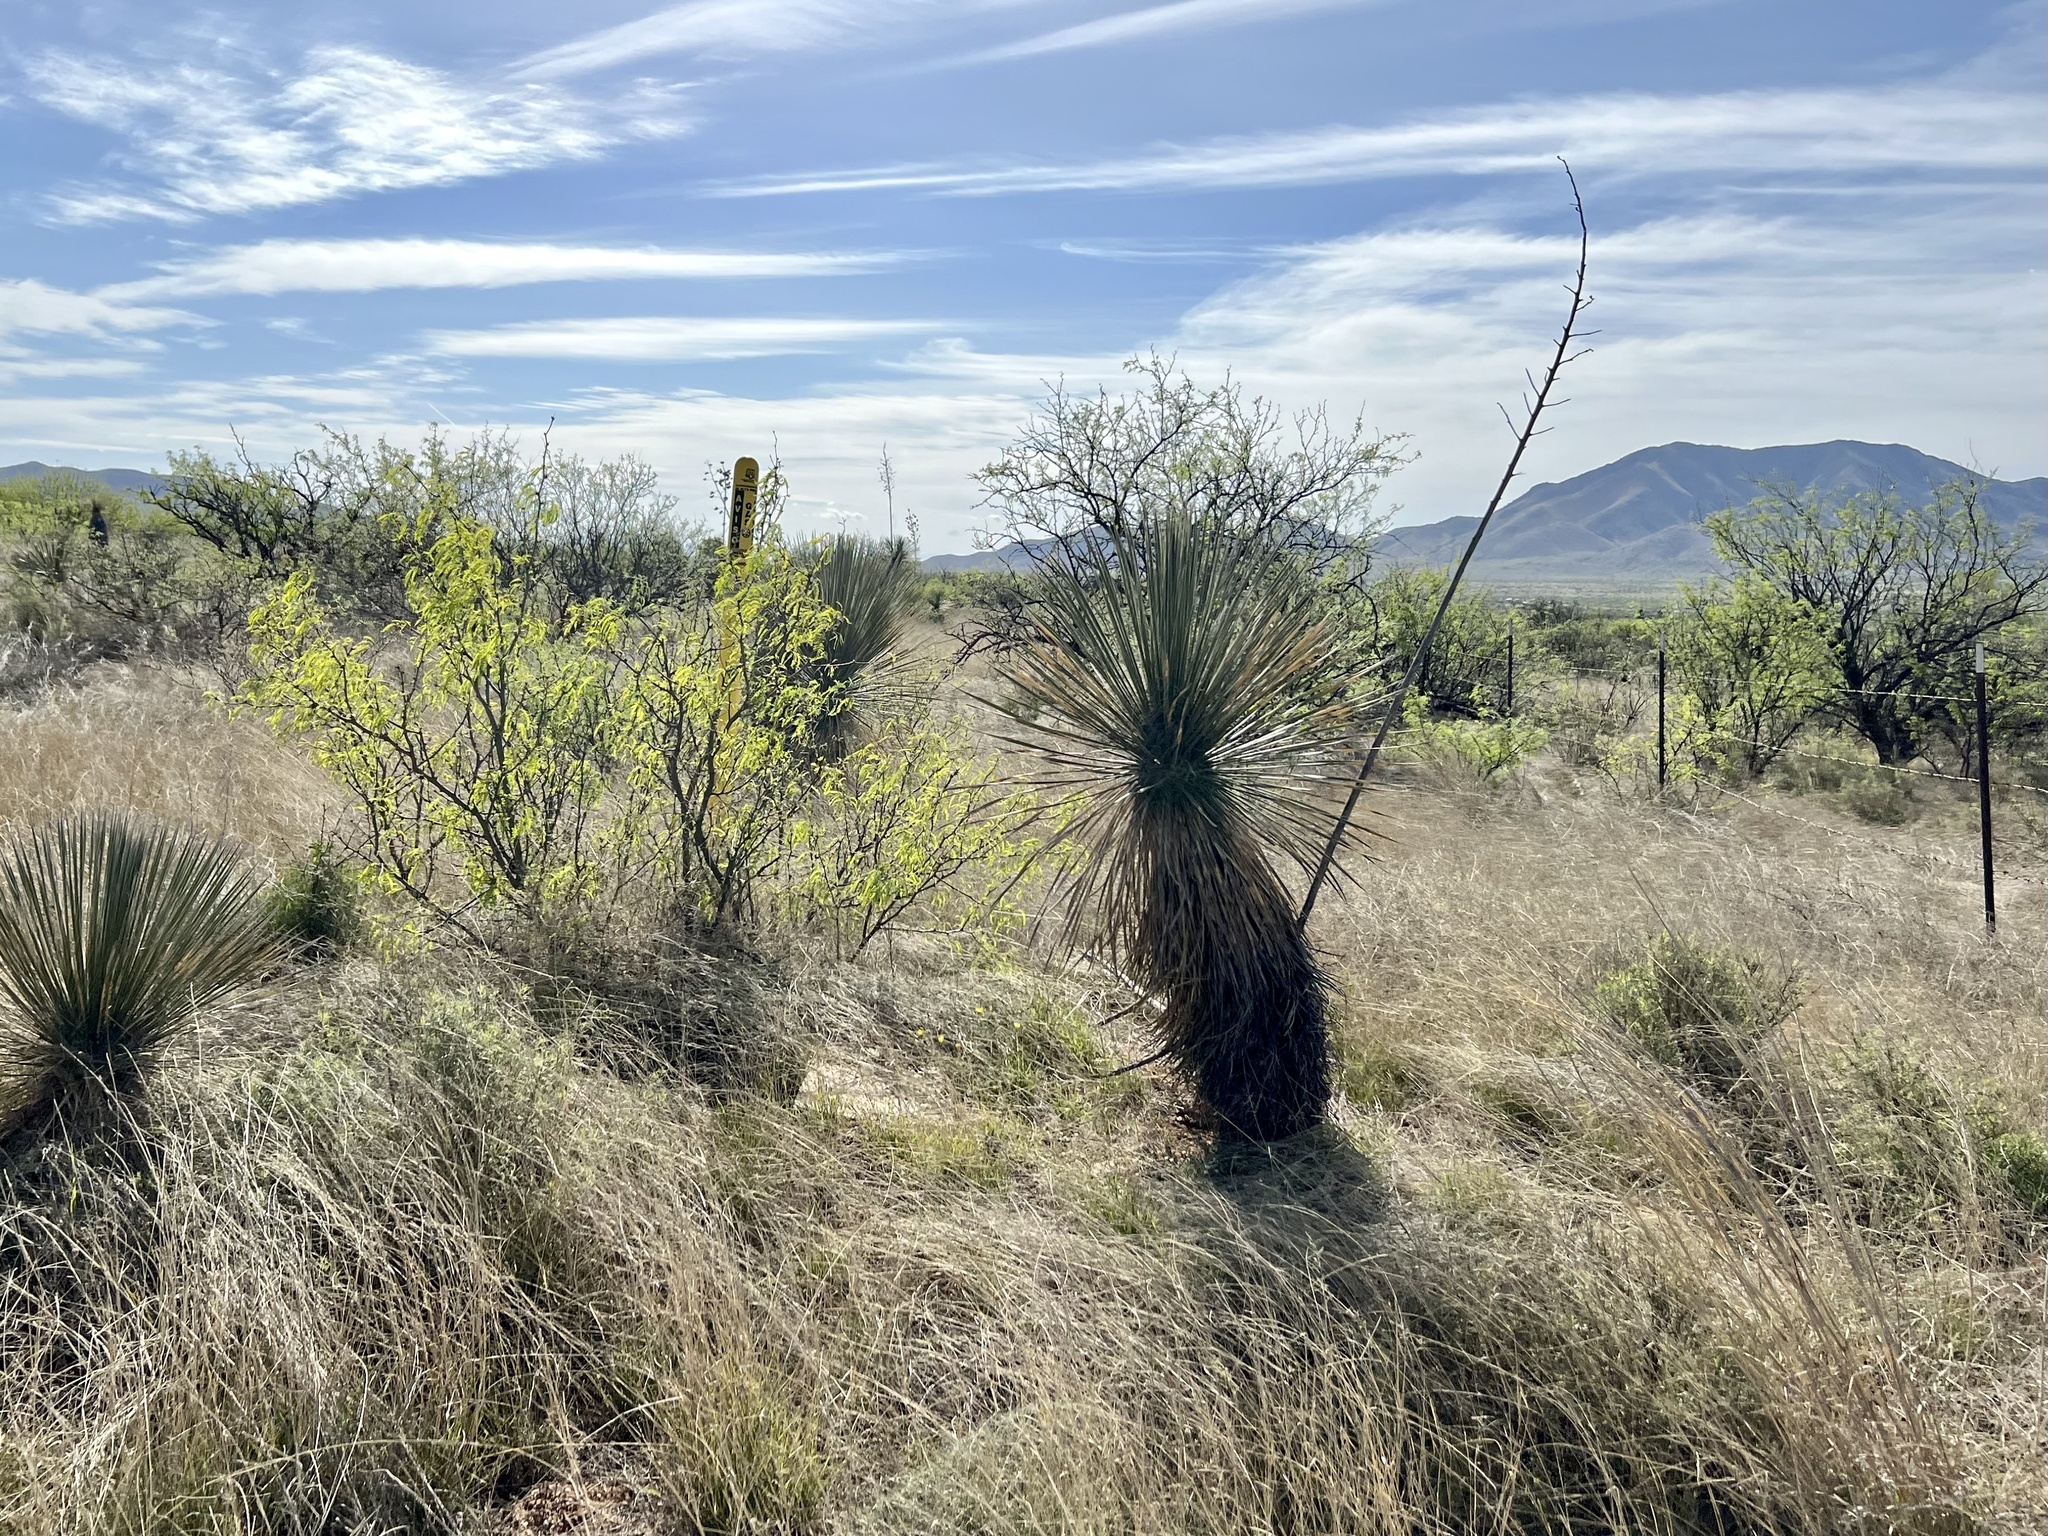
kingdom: Plantae
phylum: Tracheophyta
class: Liliopsida
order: Asparagales
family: Asparagaceae
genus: Yucca
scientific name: Yucca elata
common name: Palmella
